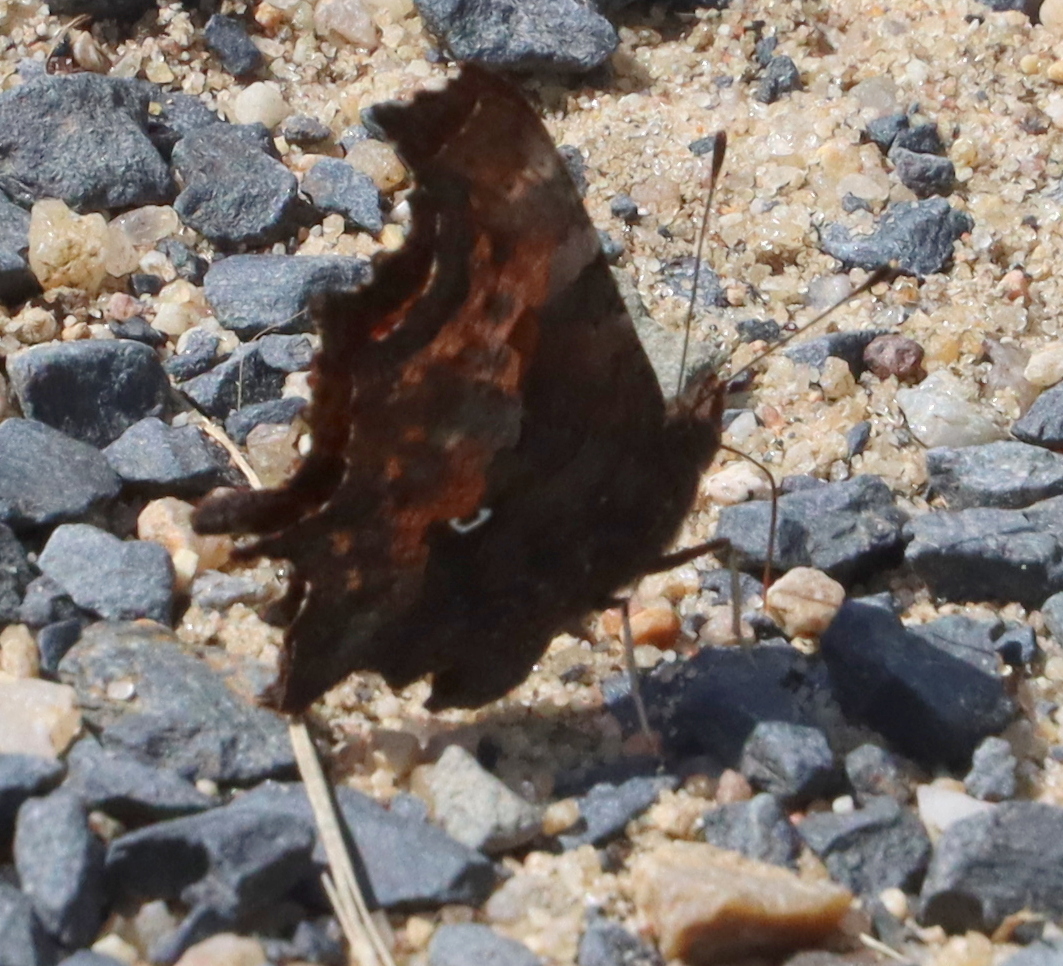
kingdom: Animalia
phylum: Arthropoda
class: Insecta
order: Lepidoptera
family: Nymphalidae
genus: Polygonia
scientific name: Polygonia c-album
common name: Comma
